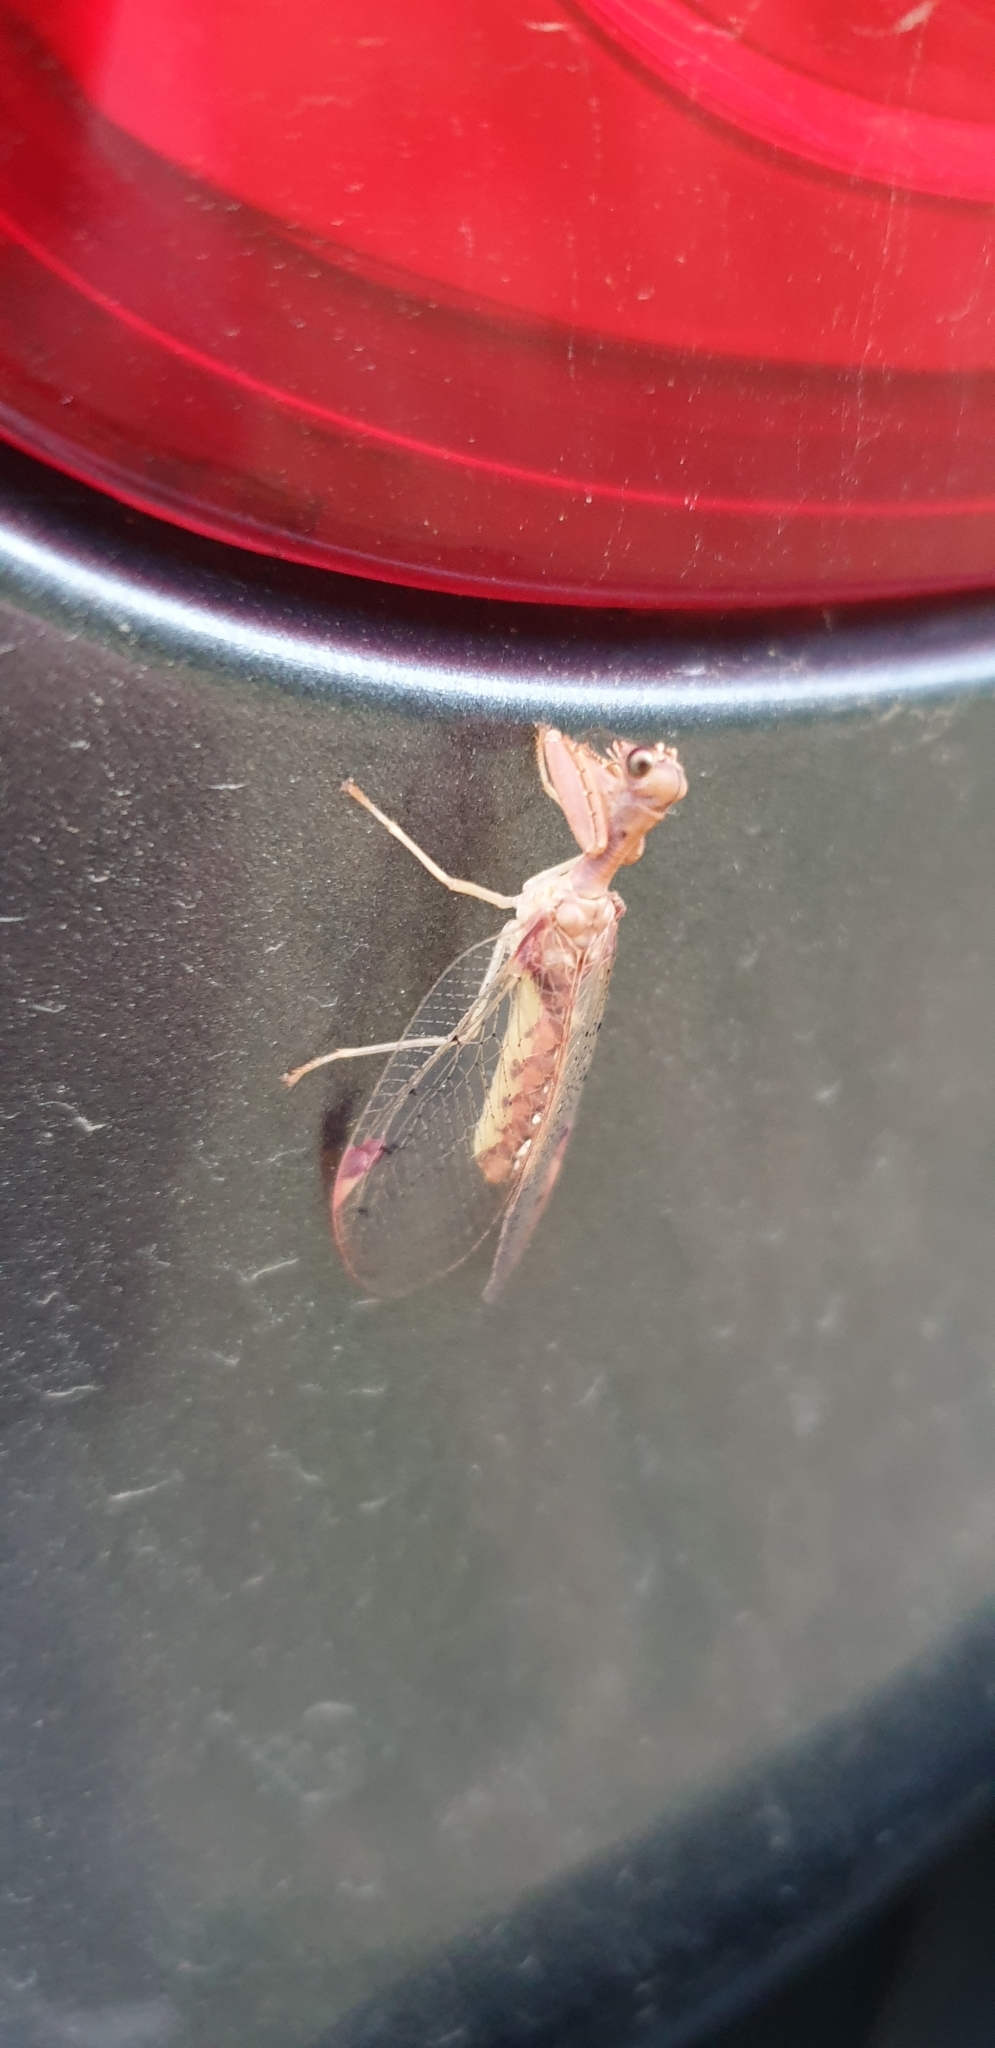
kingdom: Animalia
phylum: Arthropoda
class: Insecta
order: Neuroptera
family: Mantispidae
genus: Ditaxis
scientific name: Ditaxis biseriata
